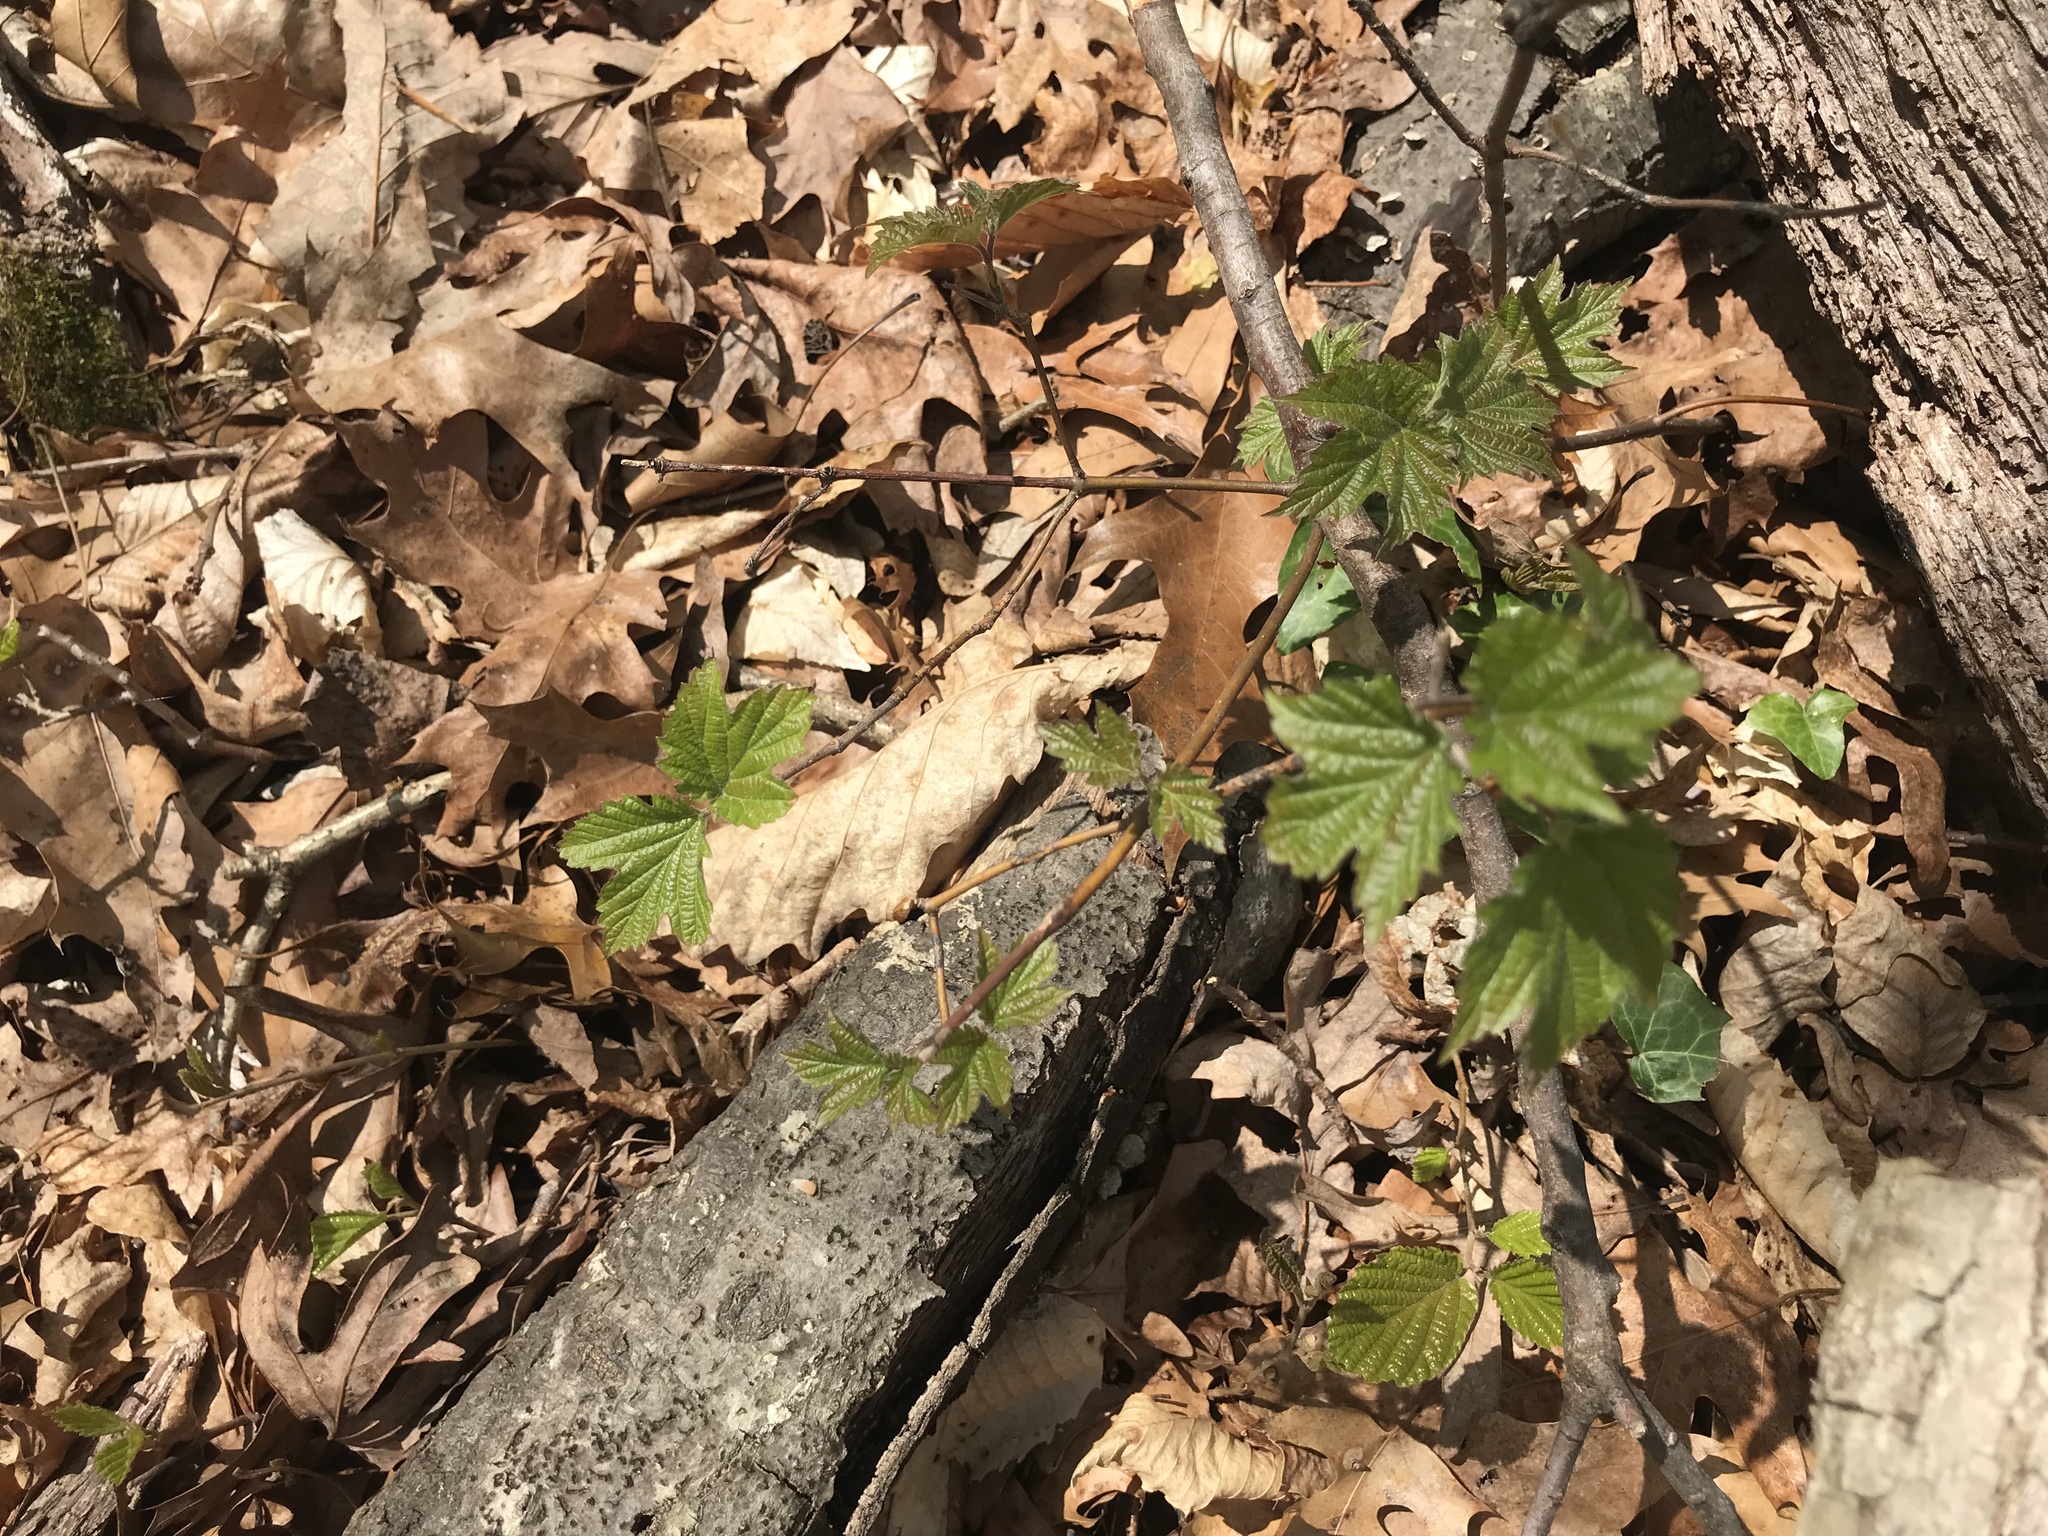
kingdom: Plantae
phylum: Tracheophyta
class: Magnoliopsida
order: Dipsacales
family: Viburnaceae
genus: Viburnum
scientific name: Viburnum acerifolium
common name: Dockmackie
